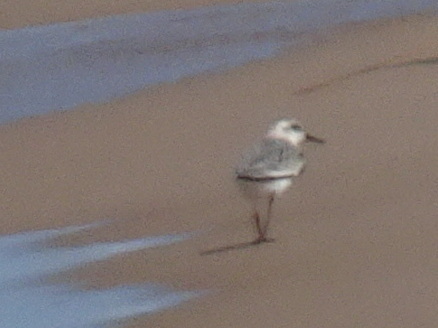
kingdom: Animalia
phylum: Chordata
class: Aves
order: Charadriiformes
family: Scolopacidae
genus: Calidris
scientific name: Calidris alba
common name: Sanderling
